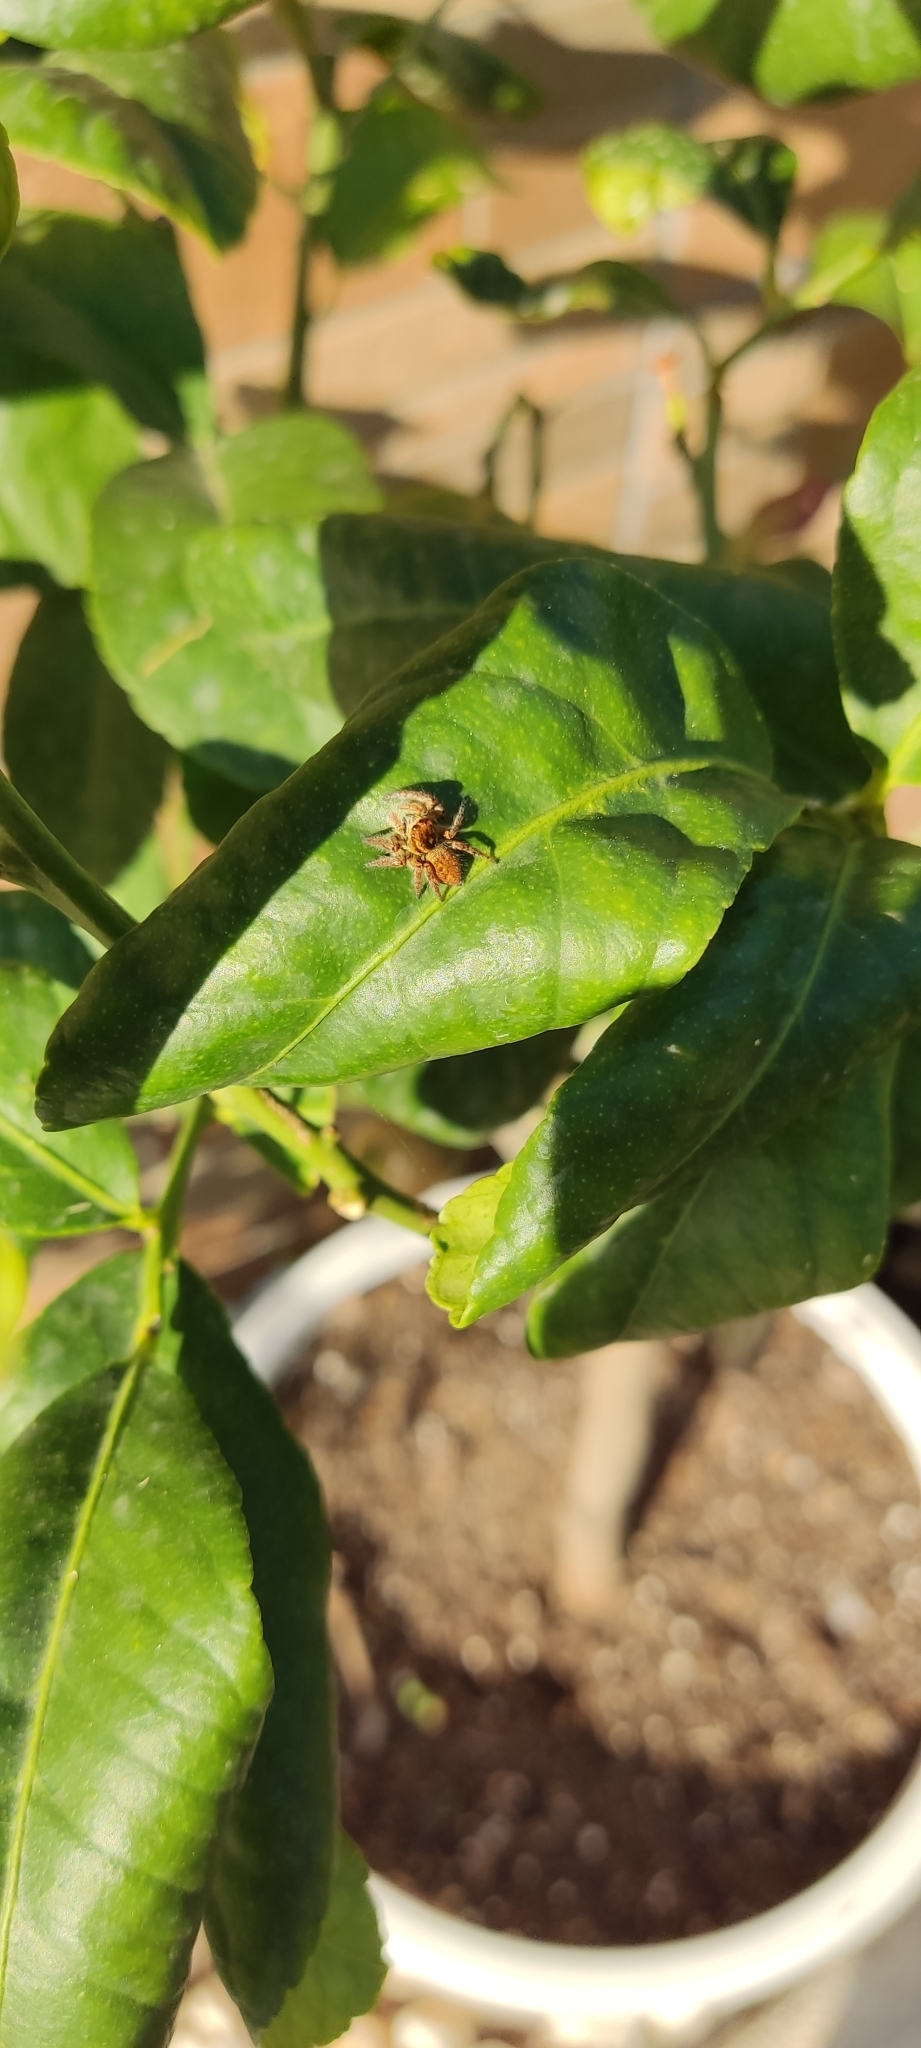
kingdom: Animalia
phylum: Arthropoda
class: Arachnida
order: Araneae
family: Salticidae
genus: Carrhotus
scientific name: Carrhotus xanthogramma
